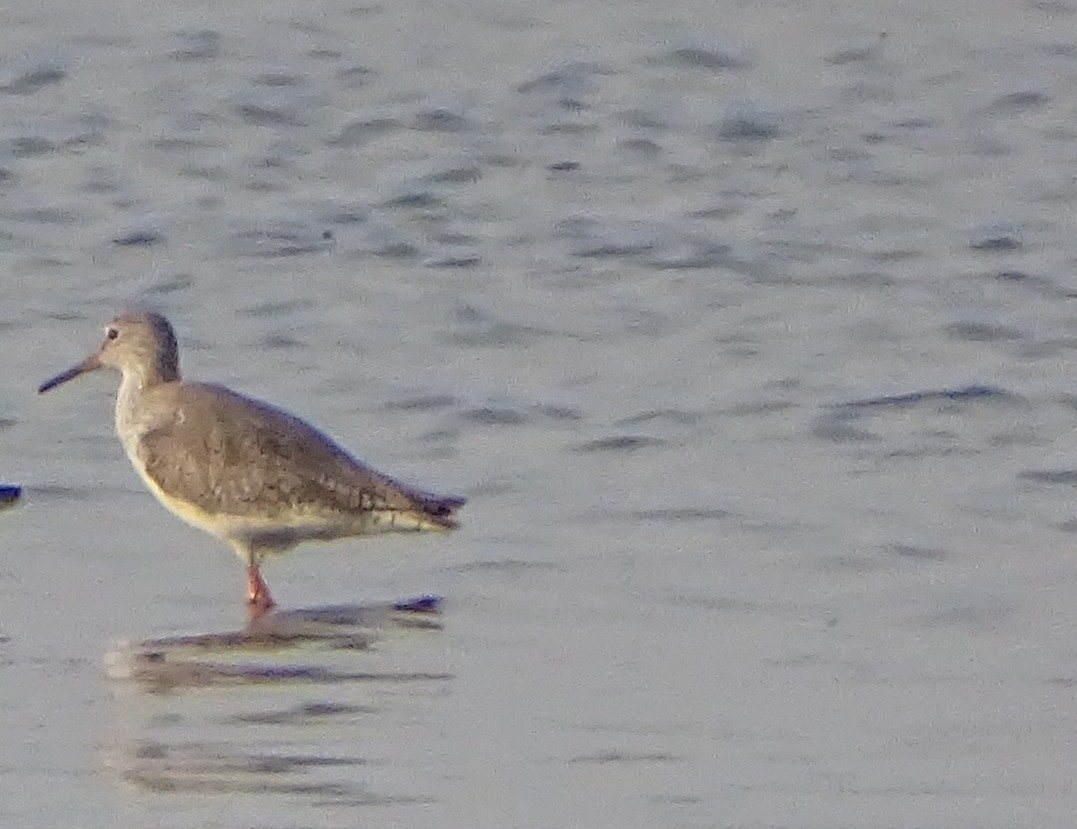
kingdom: Animalia
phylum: Chordata
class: Aves
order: Charadriiformes
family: Scolopacidae
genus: Tringa
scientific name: Tringa totanus
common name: Common redshank
